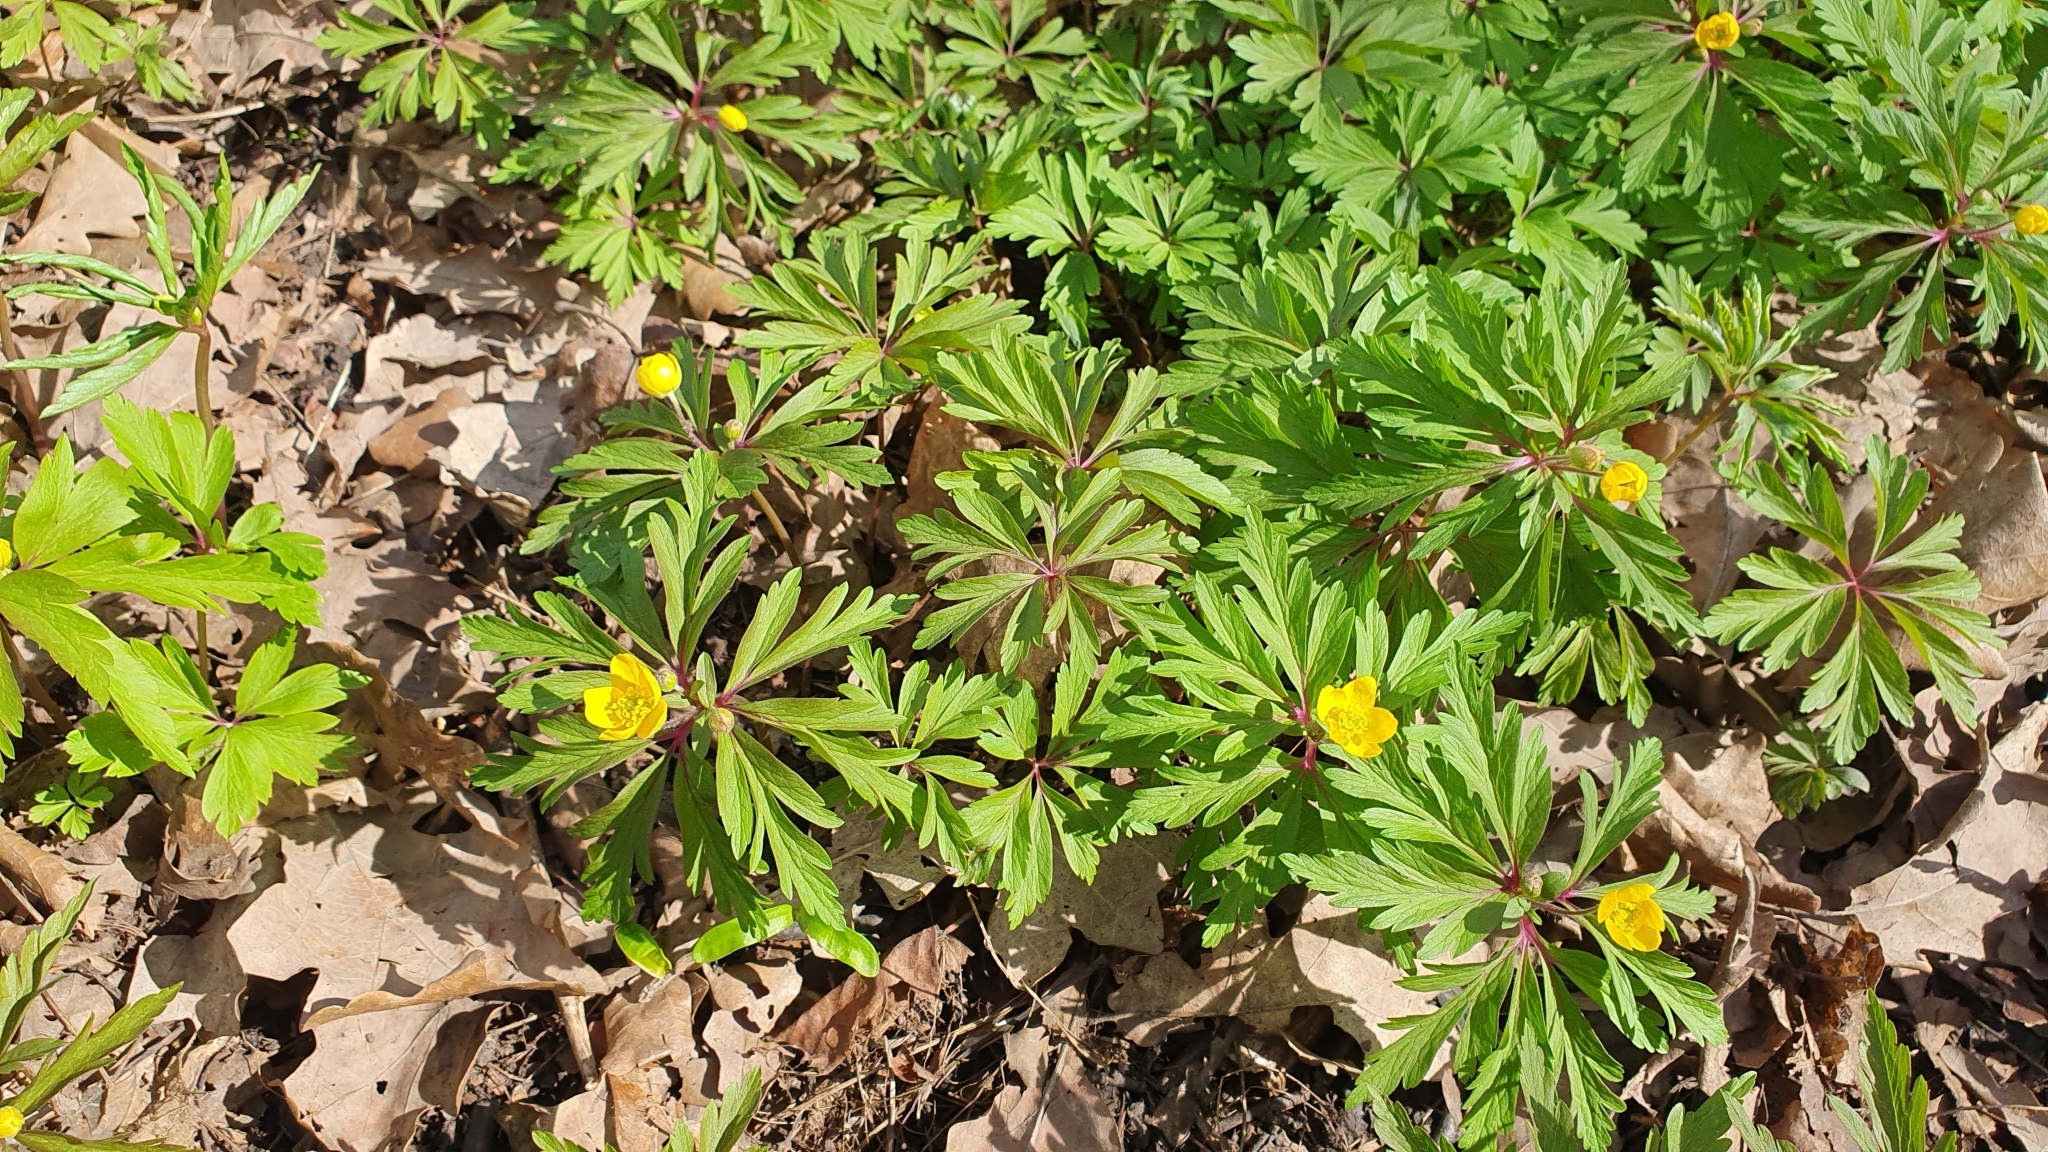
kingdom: Plantae
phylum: Tracheophyta
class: Magnoliopsida
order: Ranunculales
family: Ranunculaceae
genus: Anemone
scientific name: Anemone ranunculoides
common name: Yellow anemone
